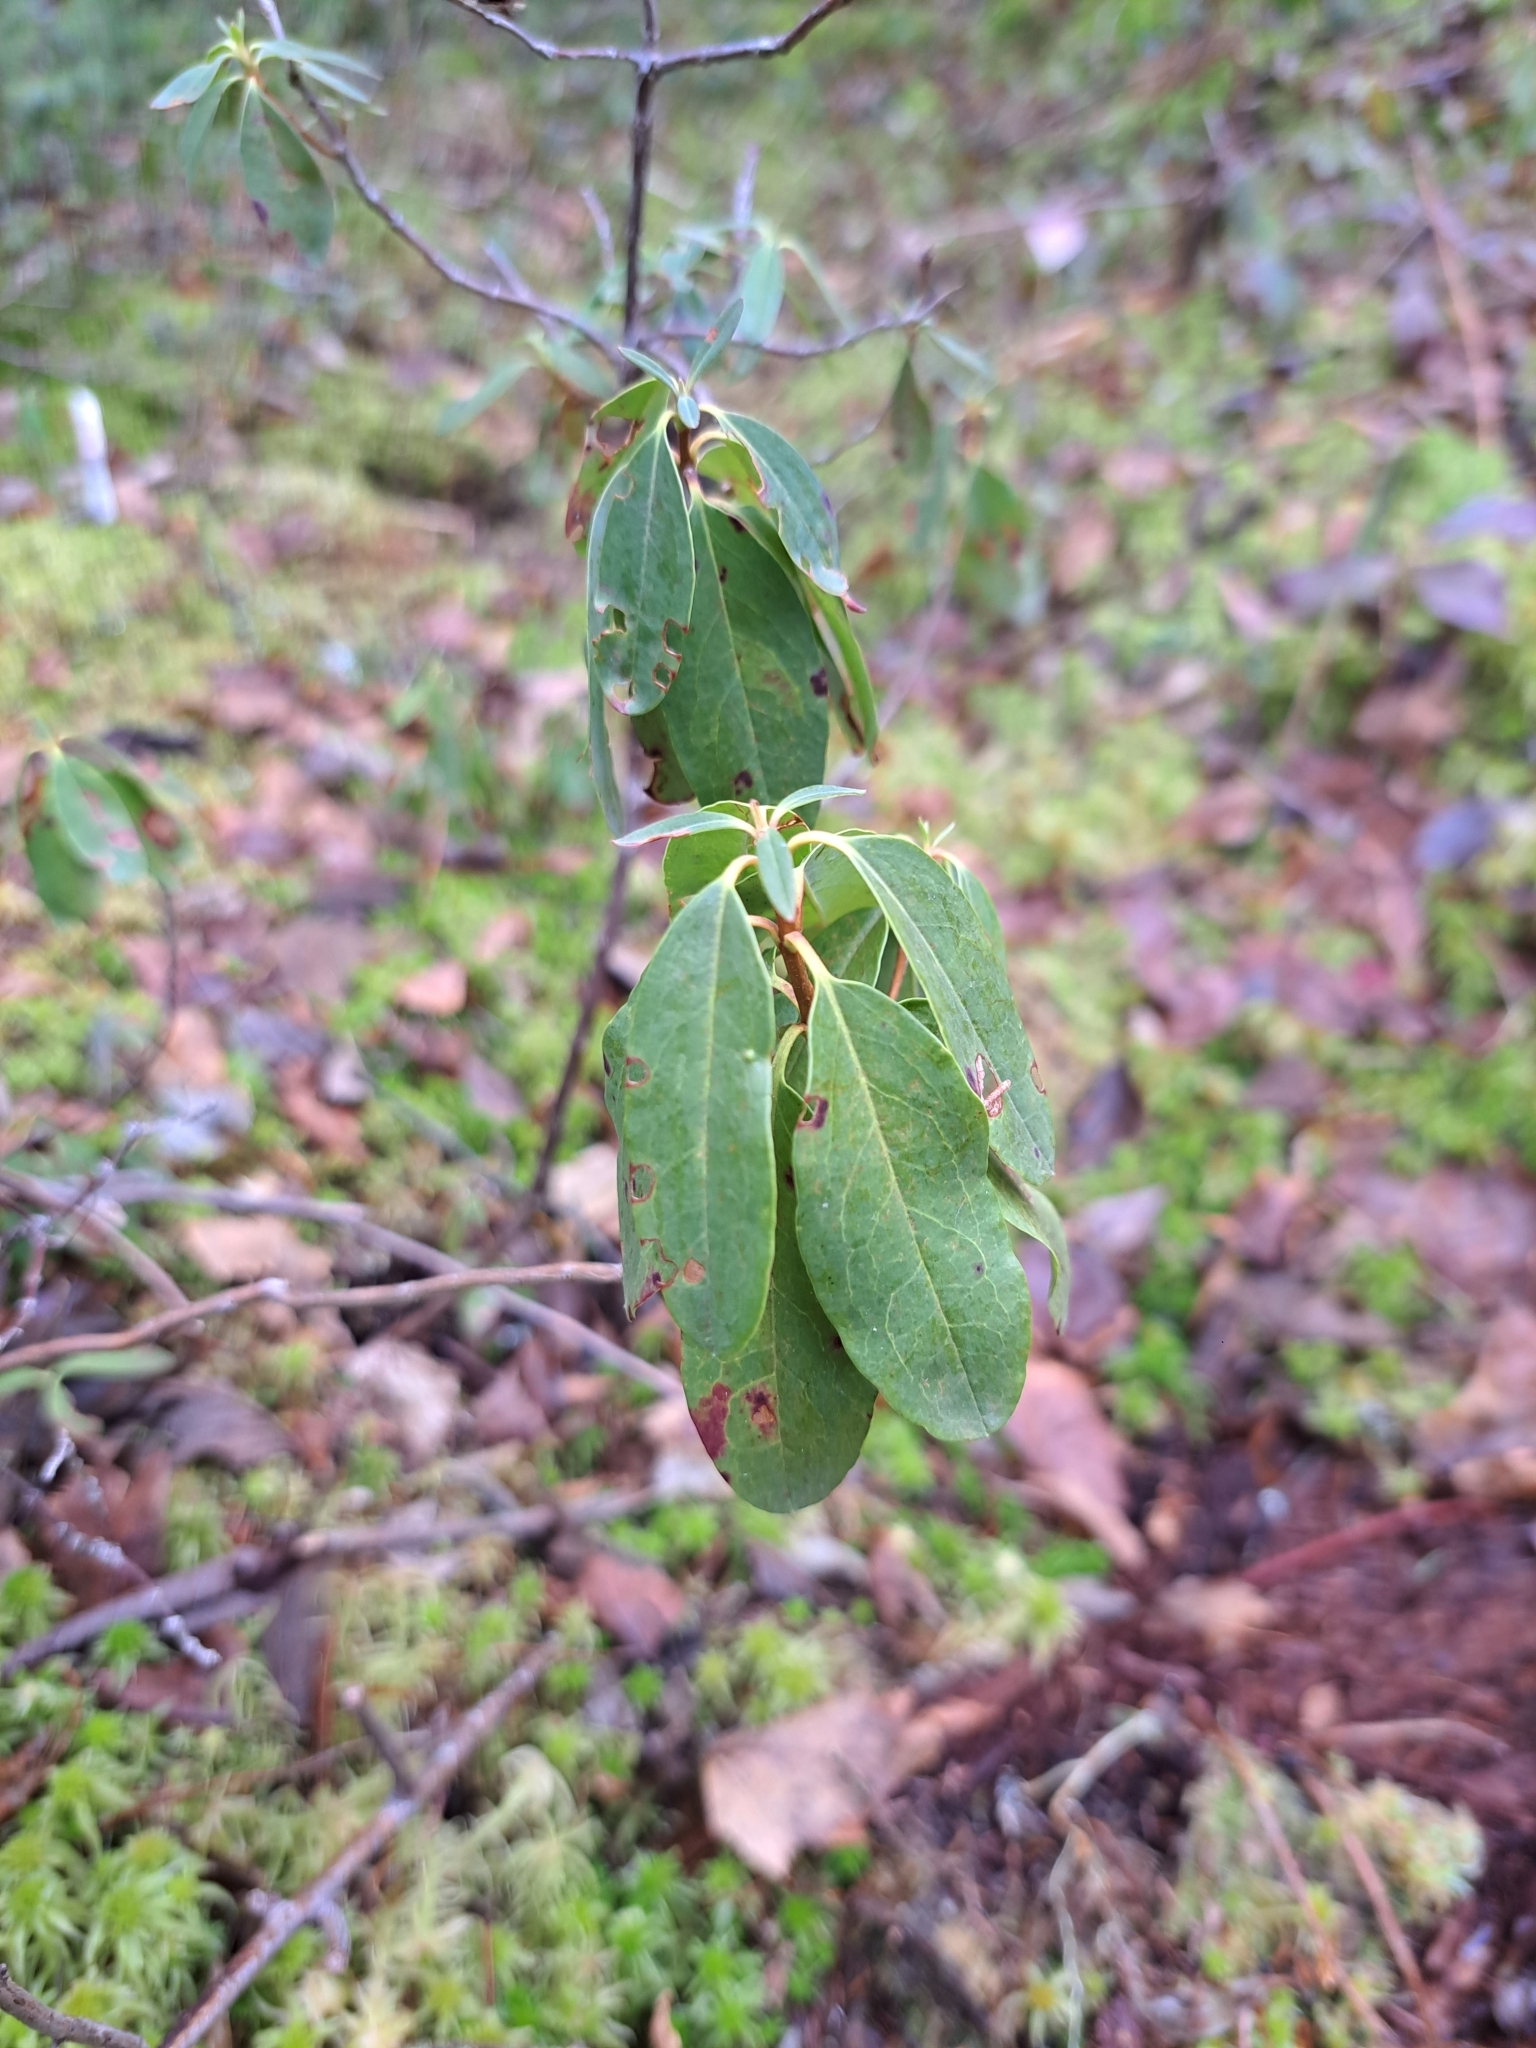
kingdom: Plantae
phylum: Tracheophyta
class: Magnoliopsida
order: Ericales
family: Ericaceae
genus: Kalmia
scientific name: Kalmia angustifolia
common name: Sheep-laurel
